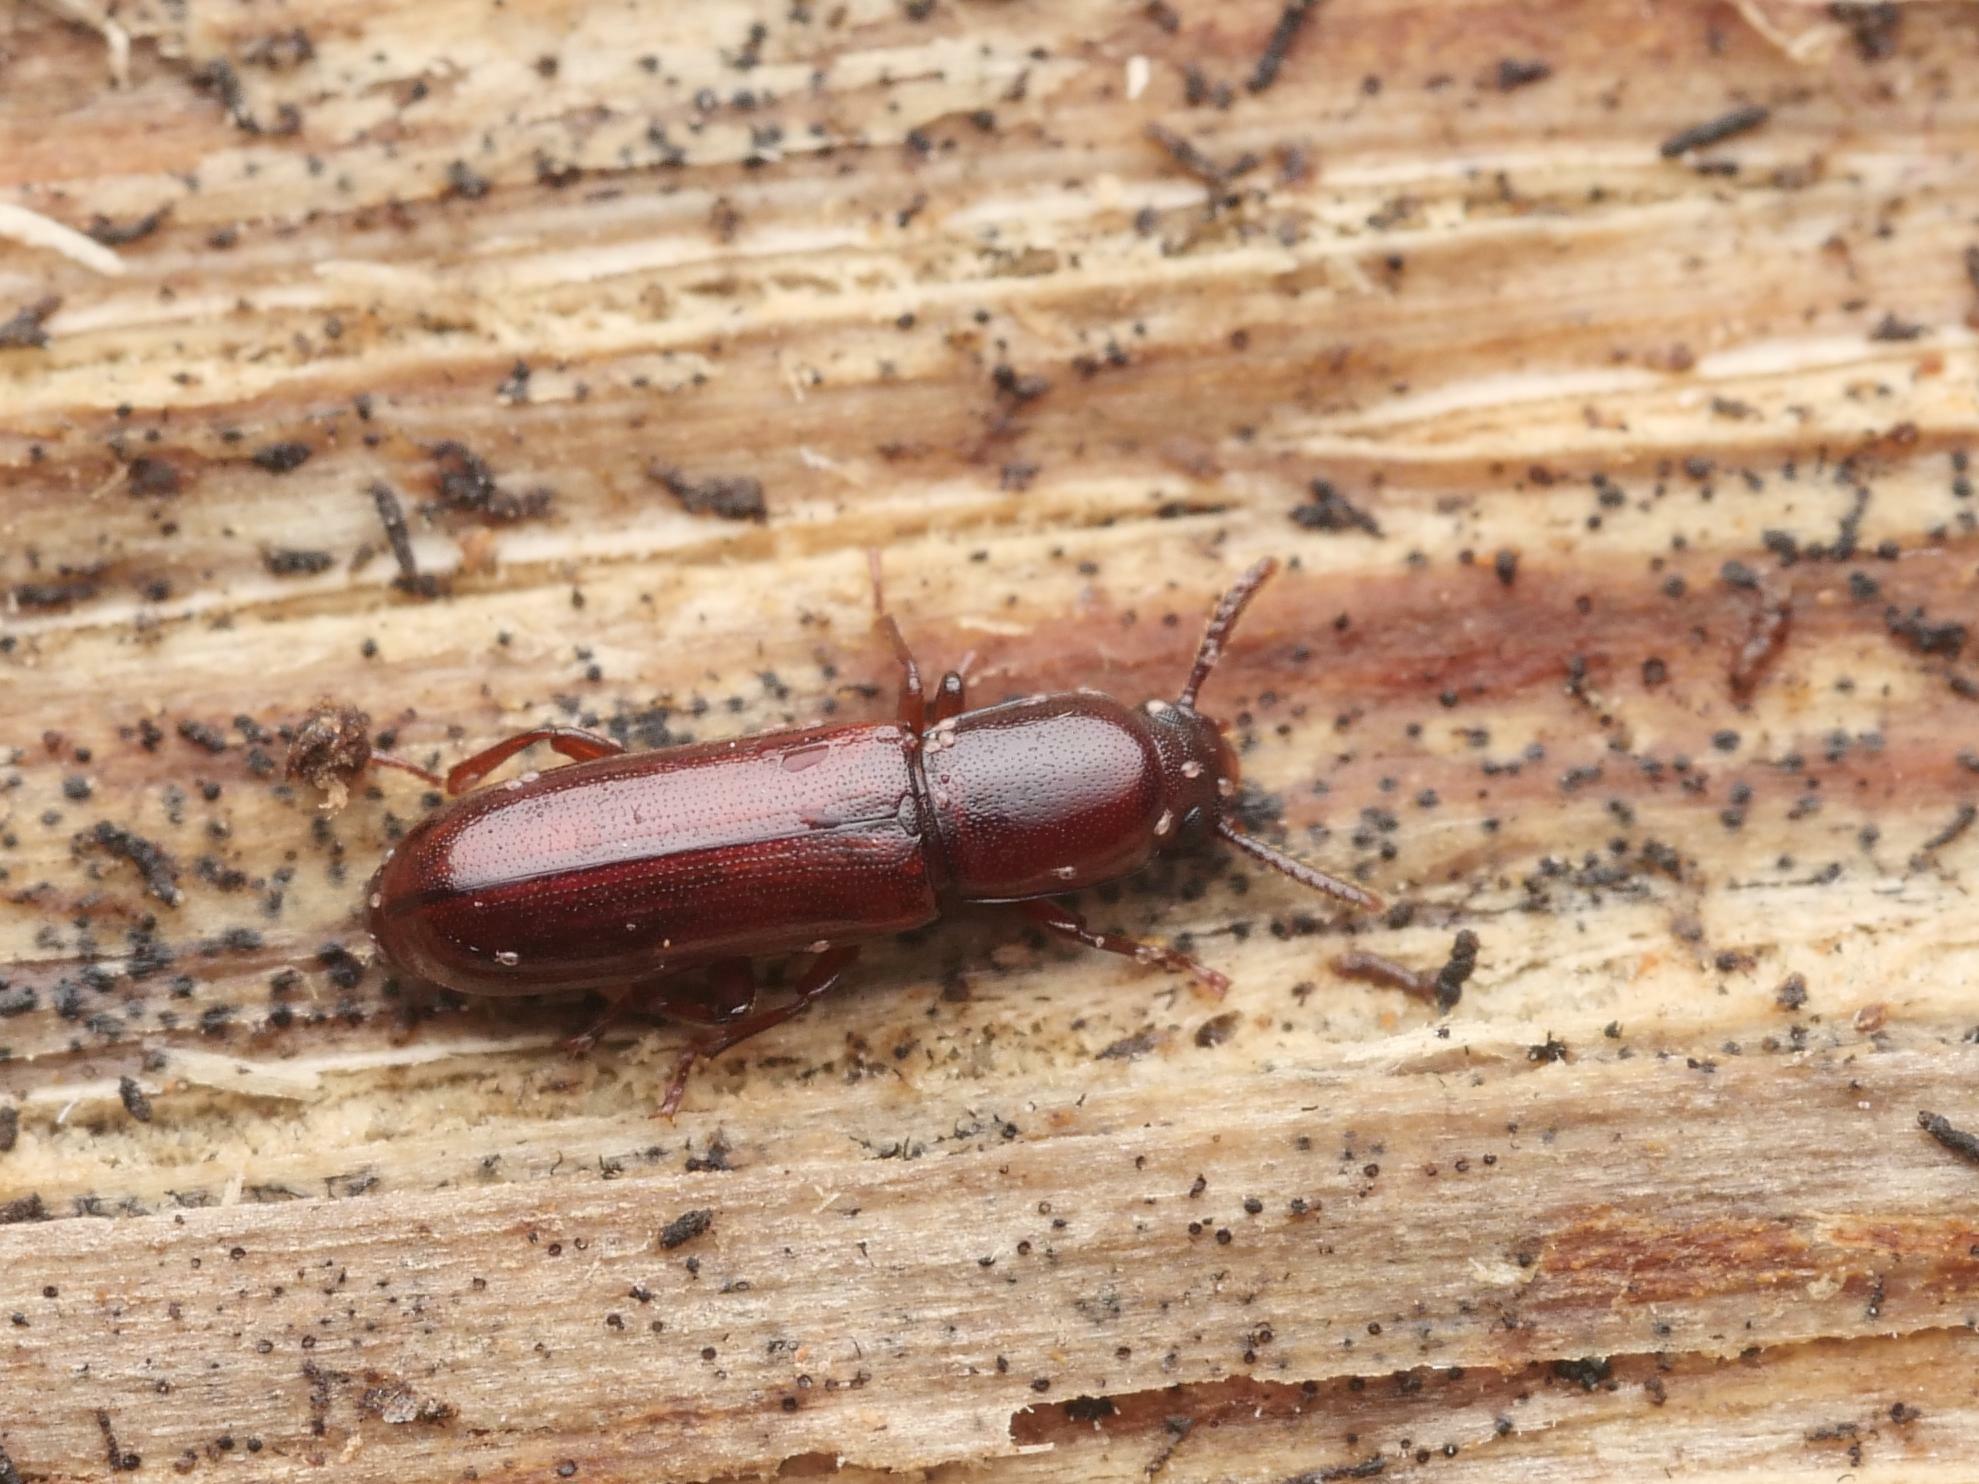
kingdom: Animalia
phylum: Arthropoda
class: Insecta
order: Coleoptera
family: Tenebrionidae
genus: Corticeus
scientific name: Corticeus unicolor
